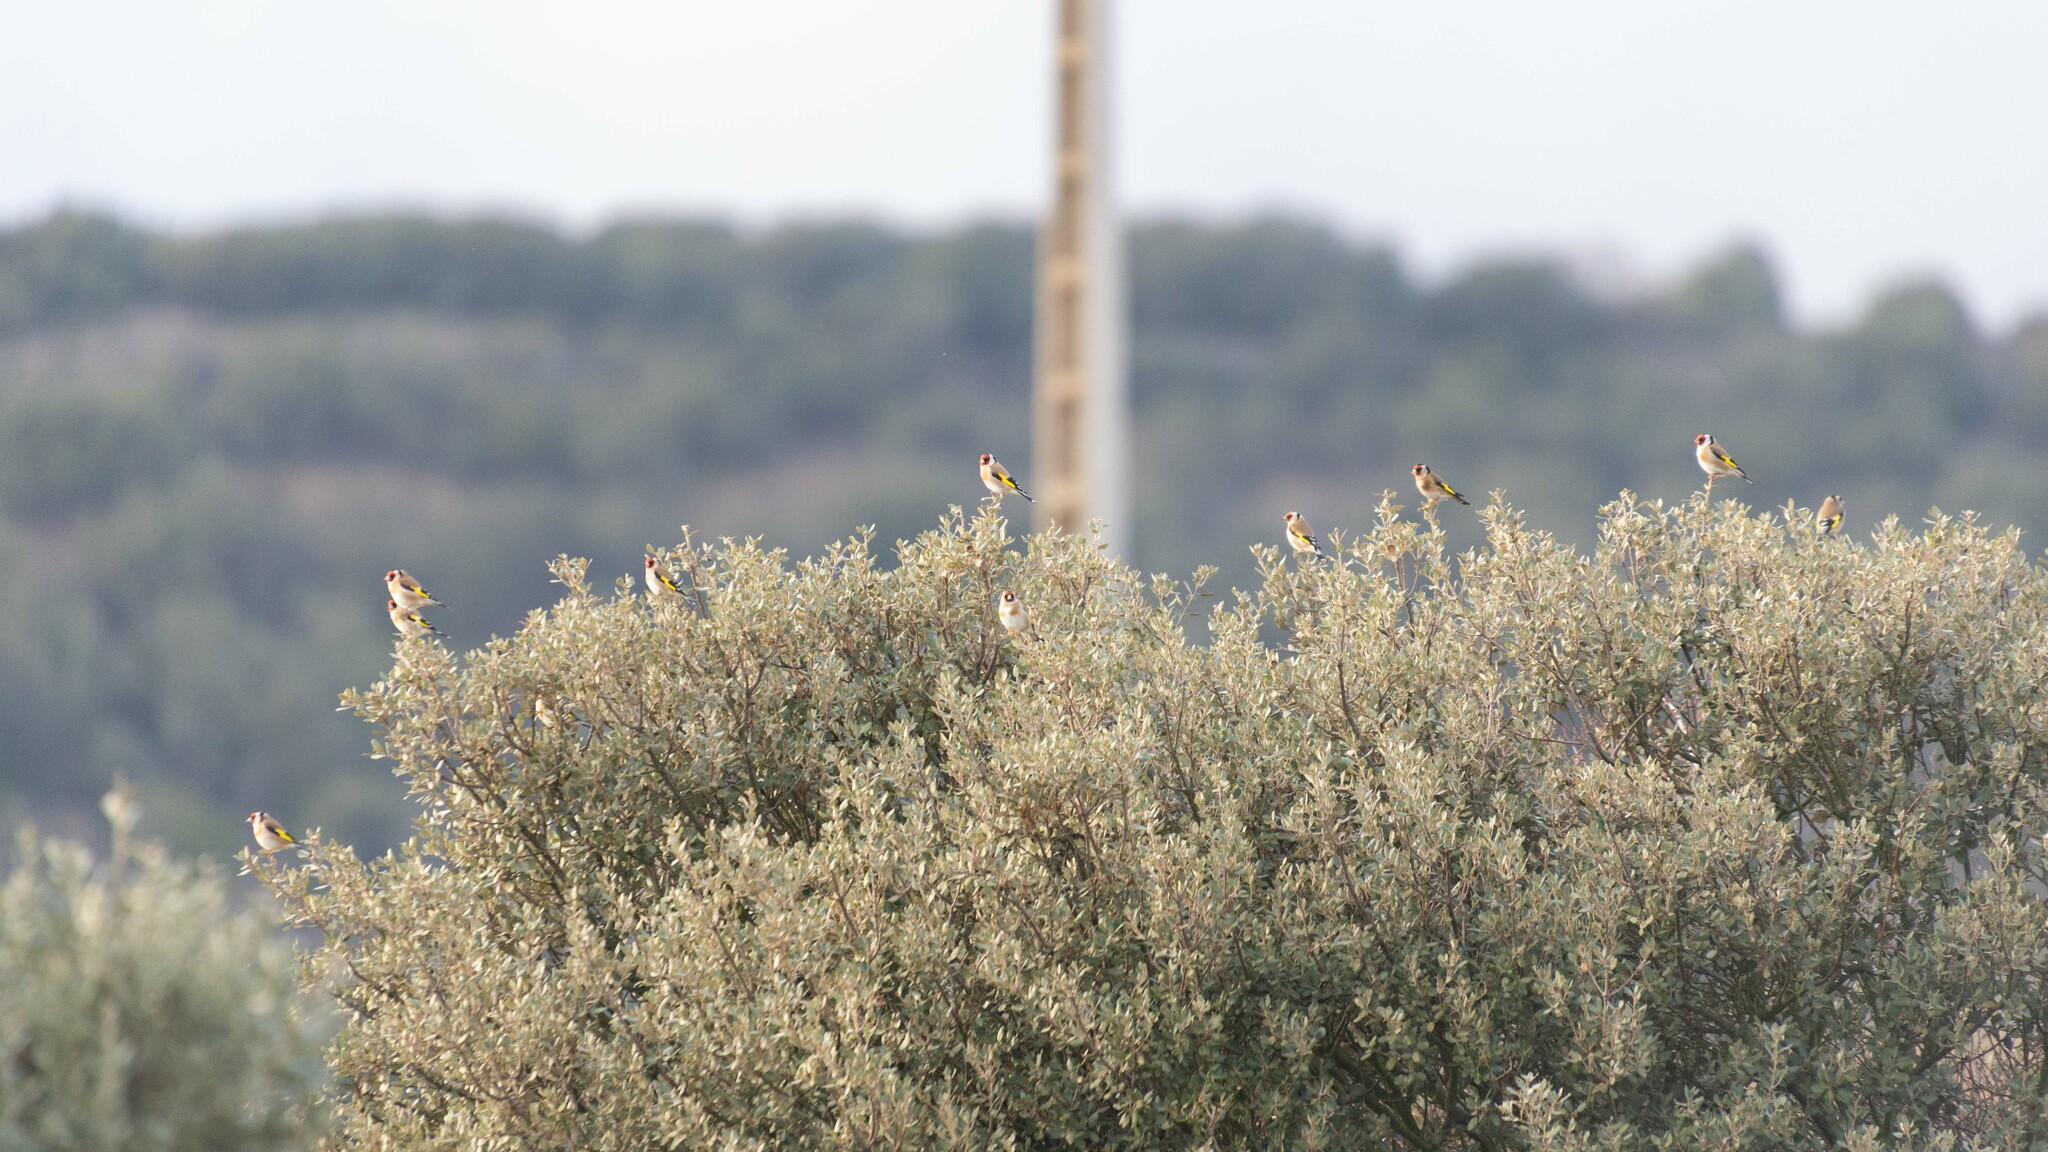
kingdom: Animalia
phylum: Chordata
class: Aves
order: Passeriformes
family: Fringillidae
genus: Carduelis
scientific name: Carduelis carduelis
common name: European goldfinch
